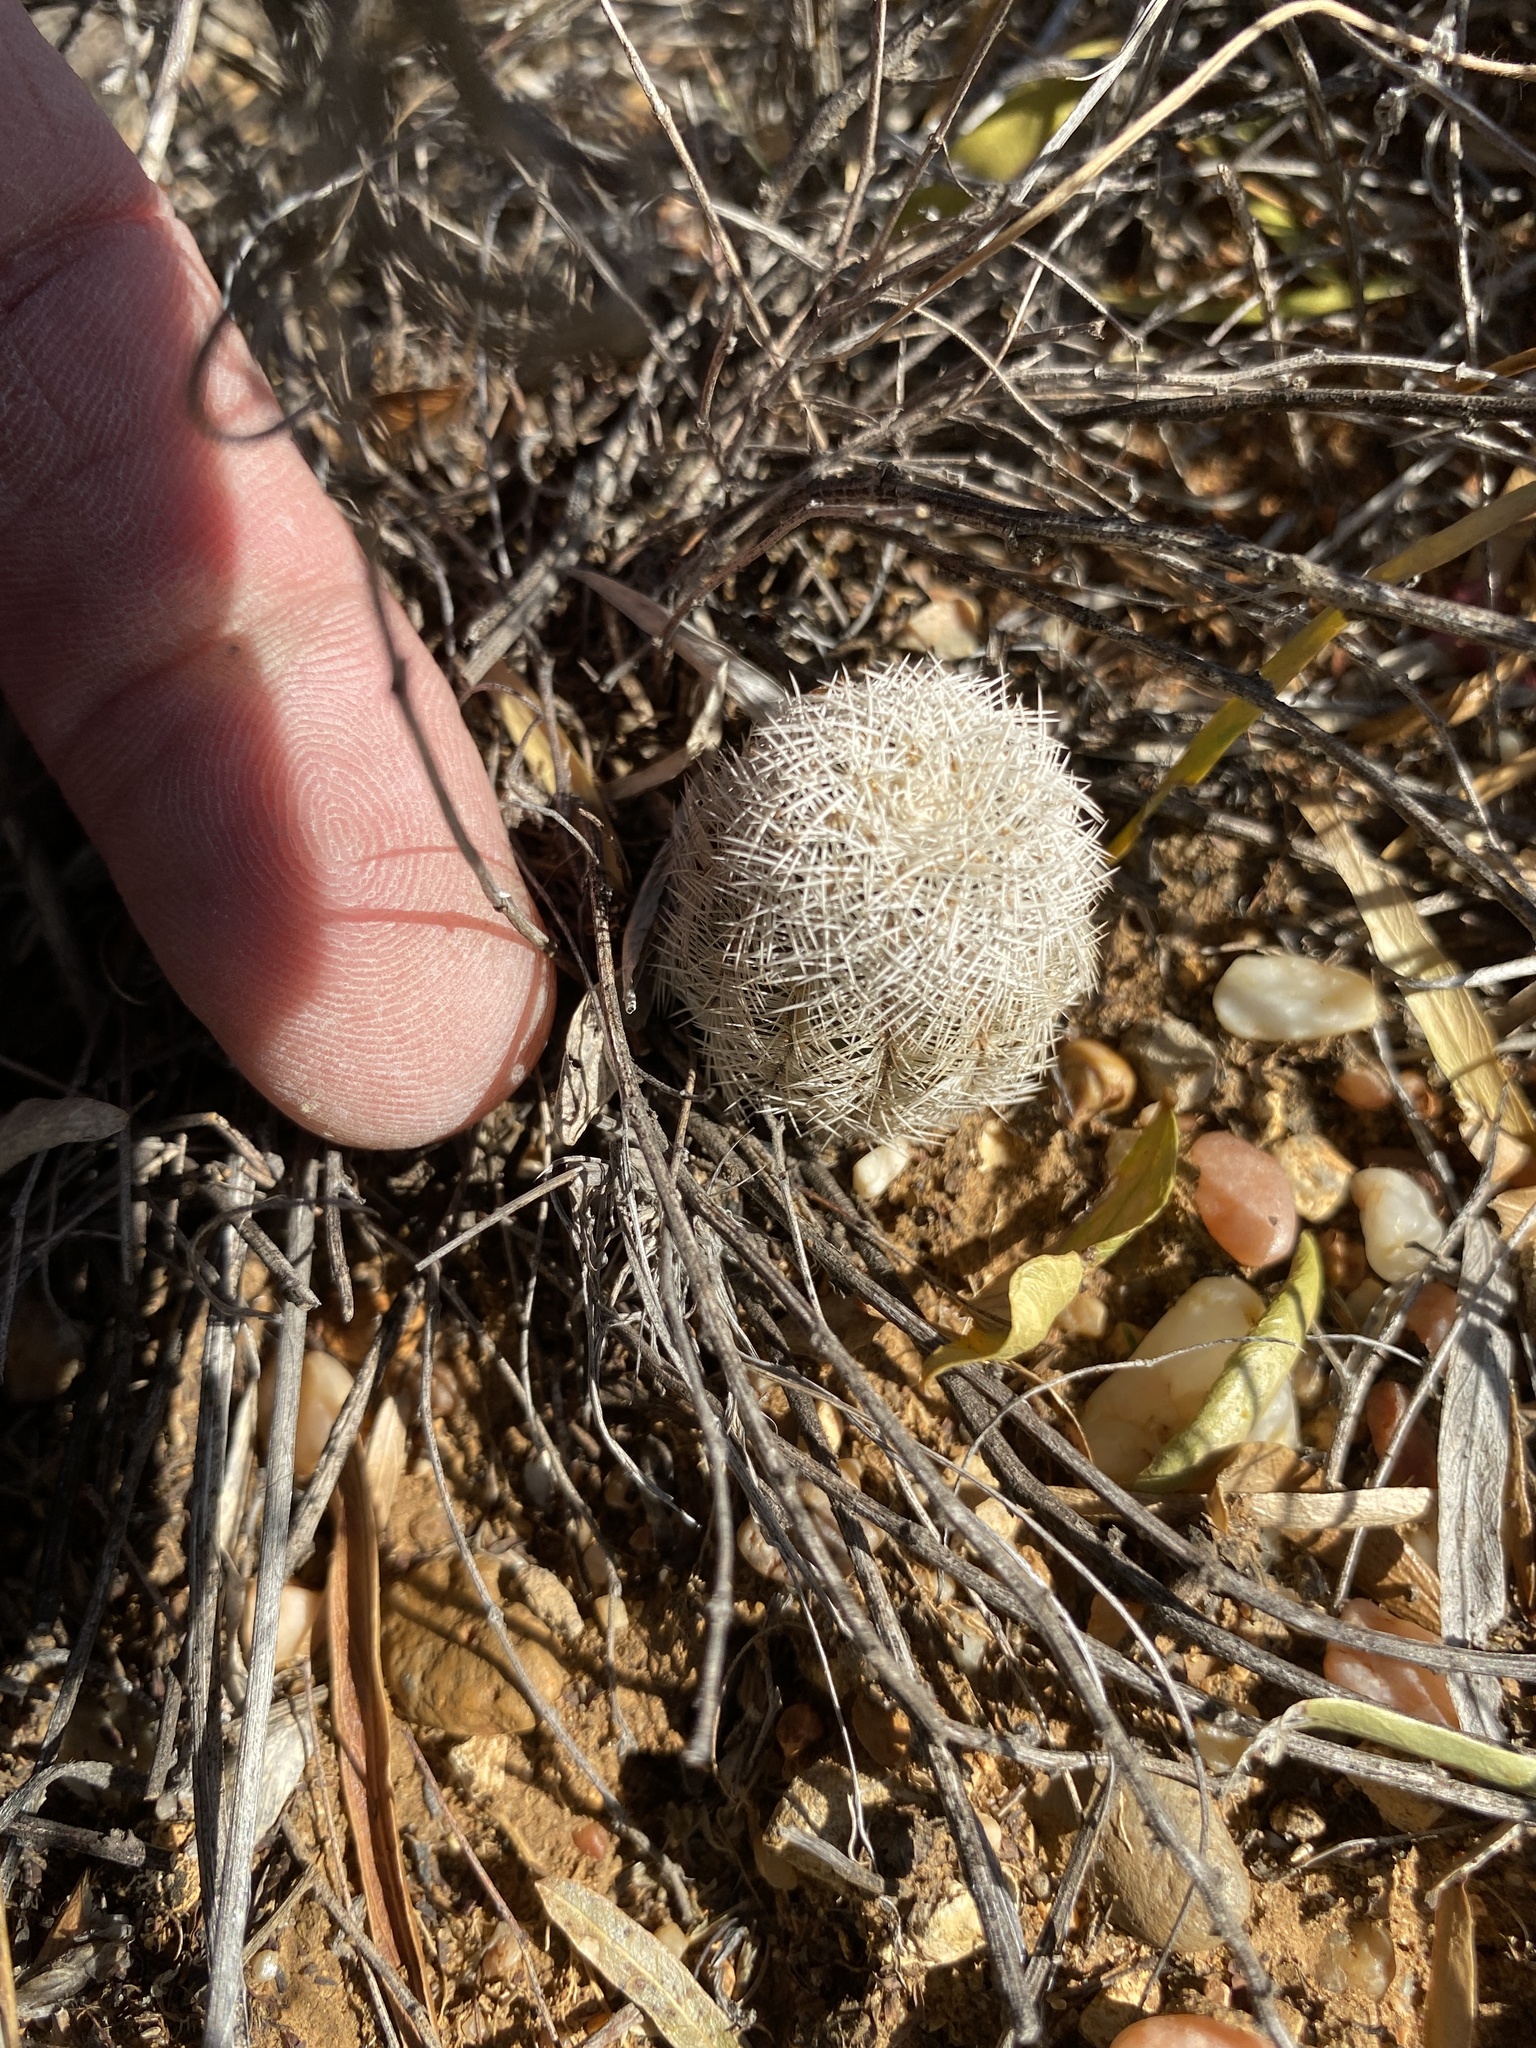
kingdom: Plantae
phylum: Tracheophyta
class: Magnoliopsida
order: Caryophyllales
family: Cactaceae
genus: Echinocereus
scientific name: Echinocereus reichenbachii
